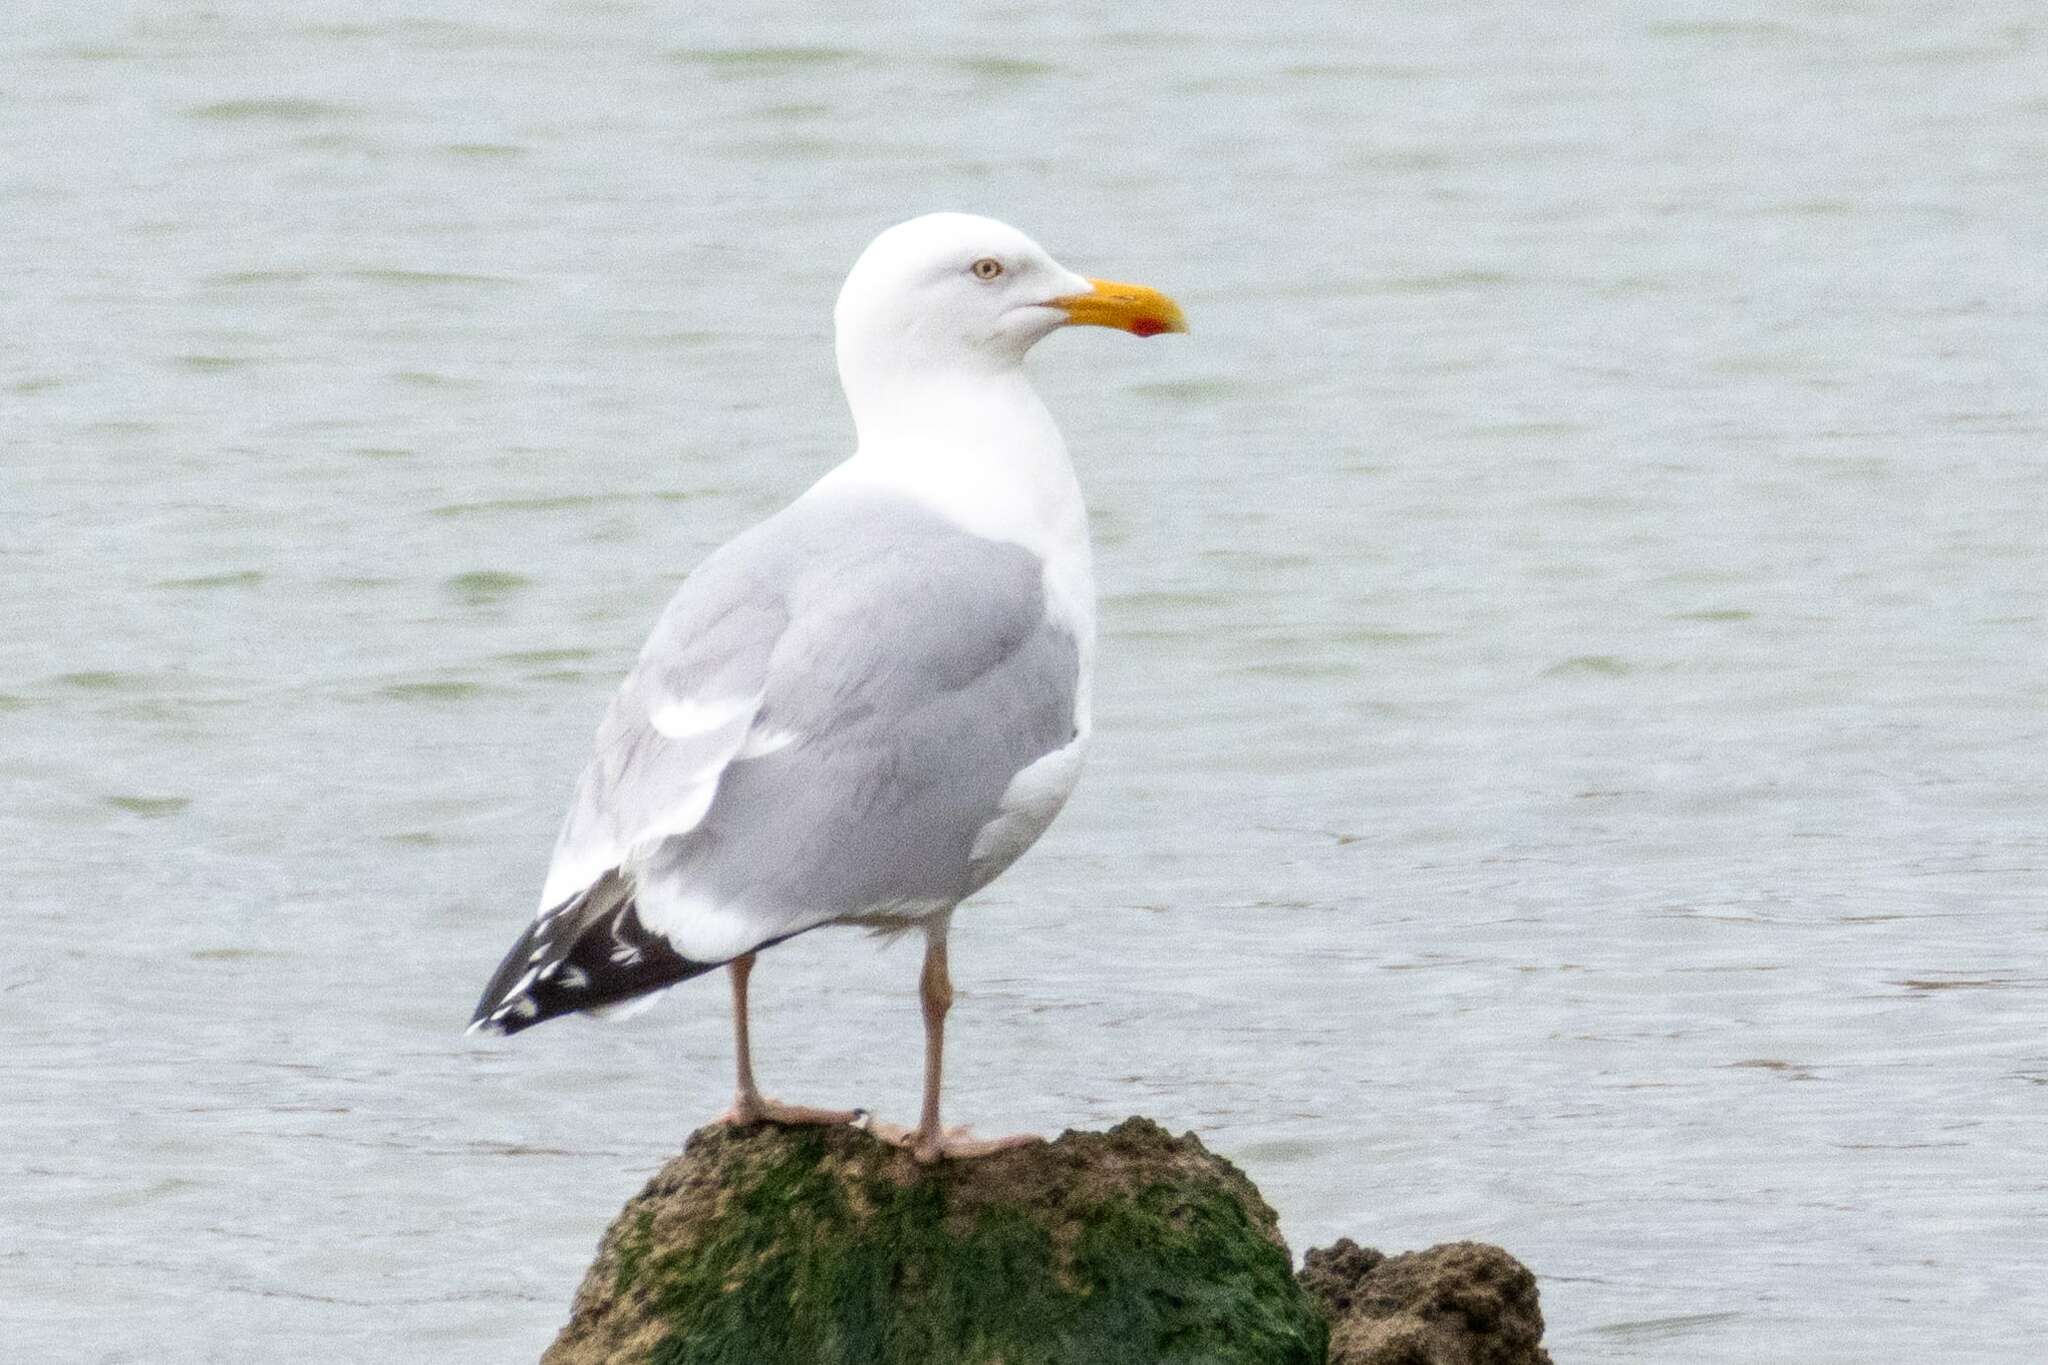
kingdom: Animalia
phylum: Chordata
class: Aves
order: Charadriiformes
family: Laridae
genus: Larus
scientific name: Larus argentatus
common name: Herring gull
